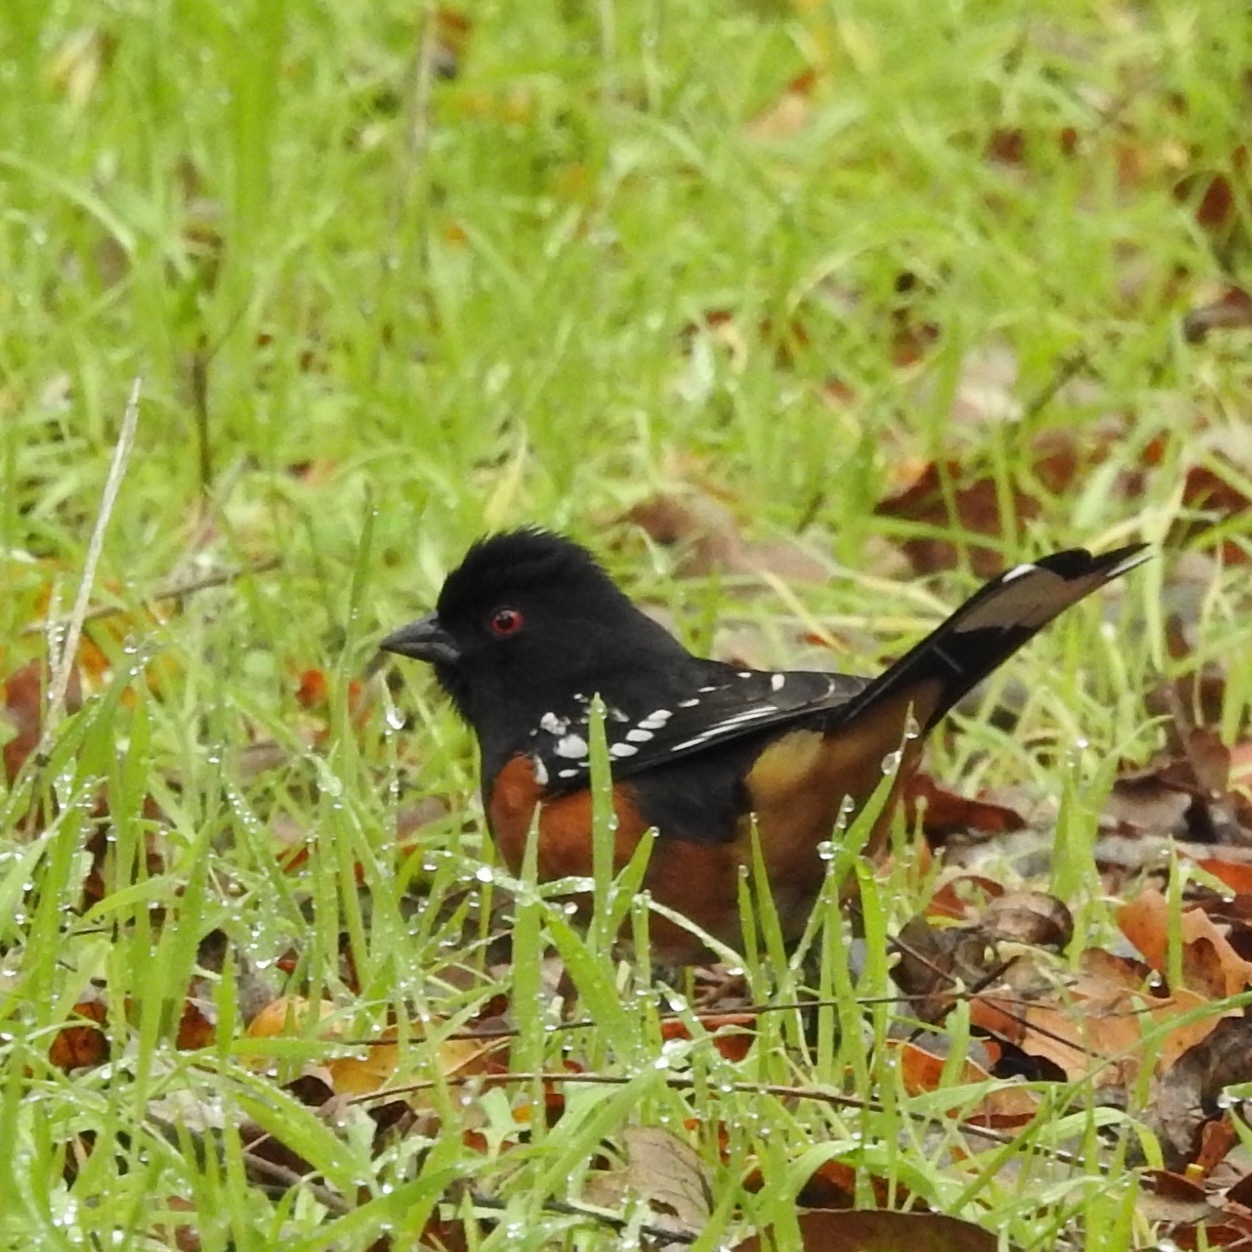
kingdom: Animalia
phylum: Chordata
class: Aves
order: Passeriformes
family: Passerellidae
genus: Pipilo
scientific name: Pipilo maculatus
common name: Spotted towhee
